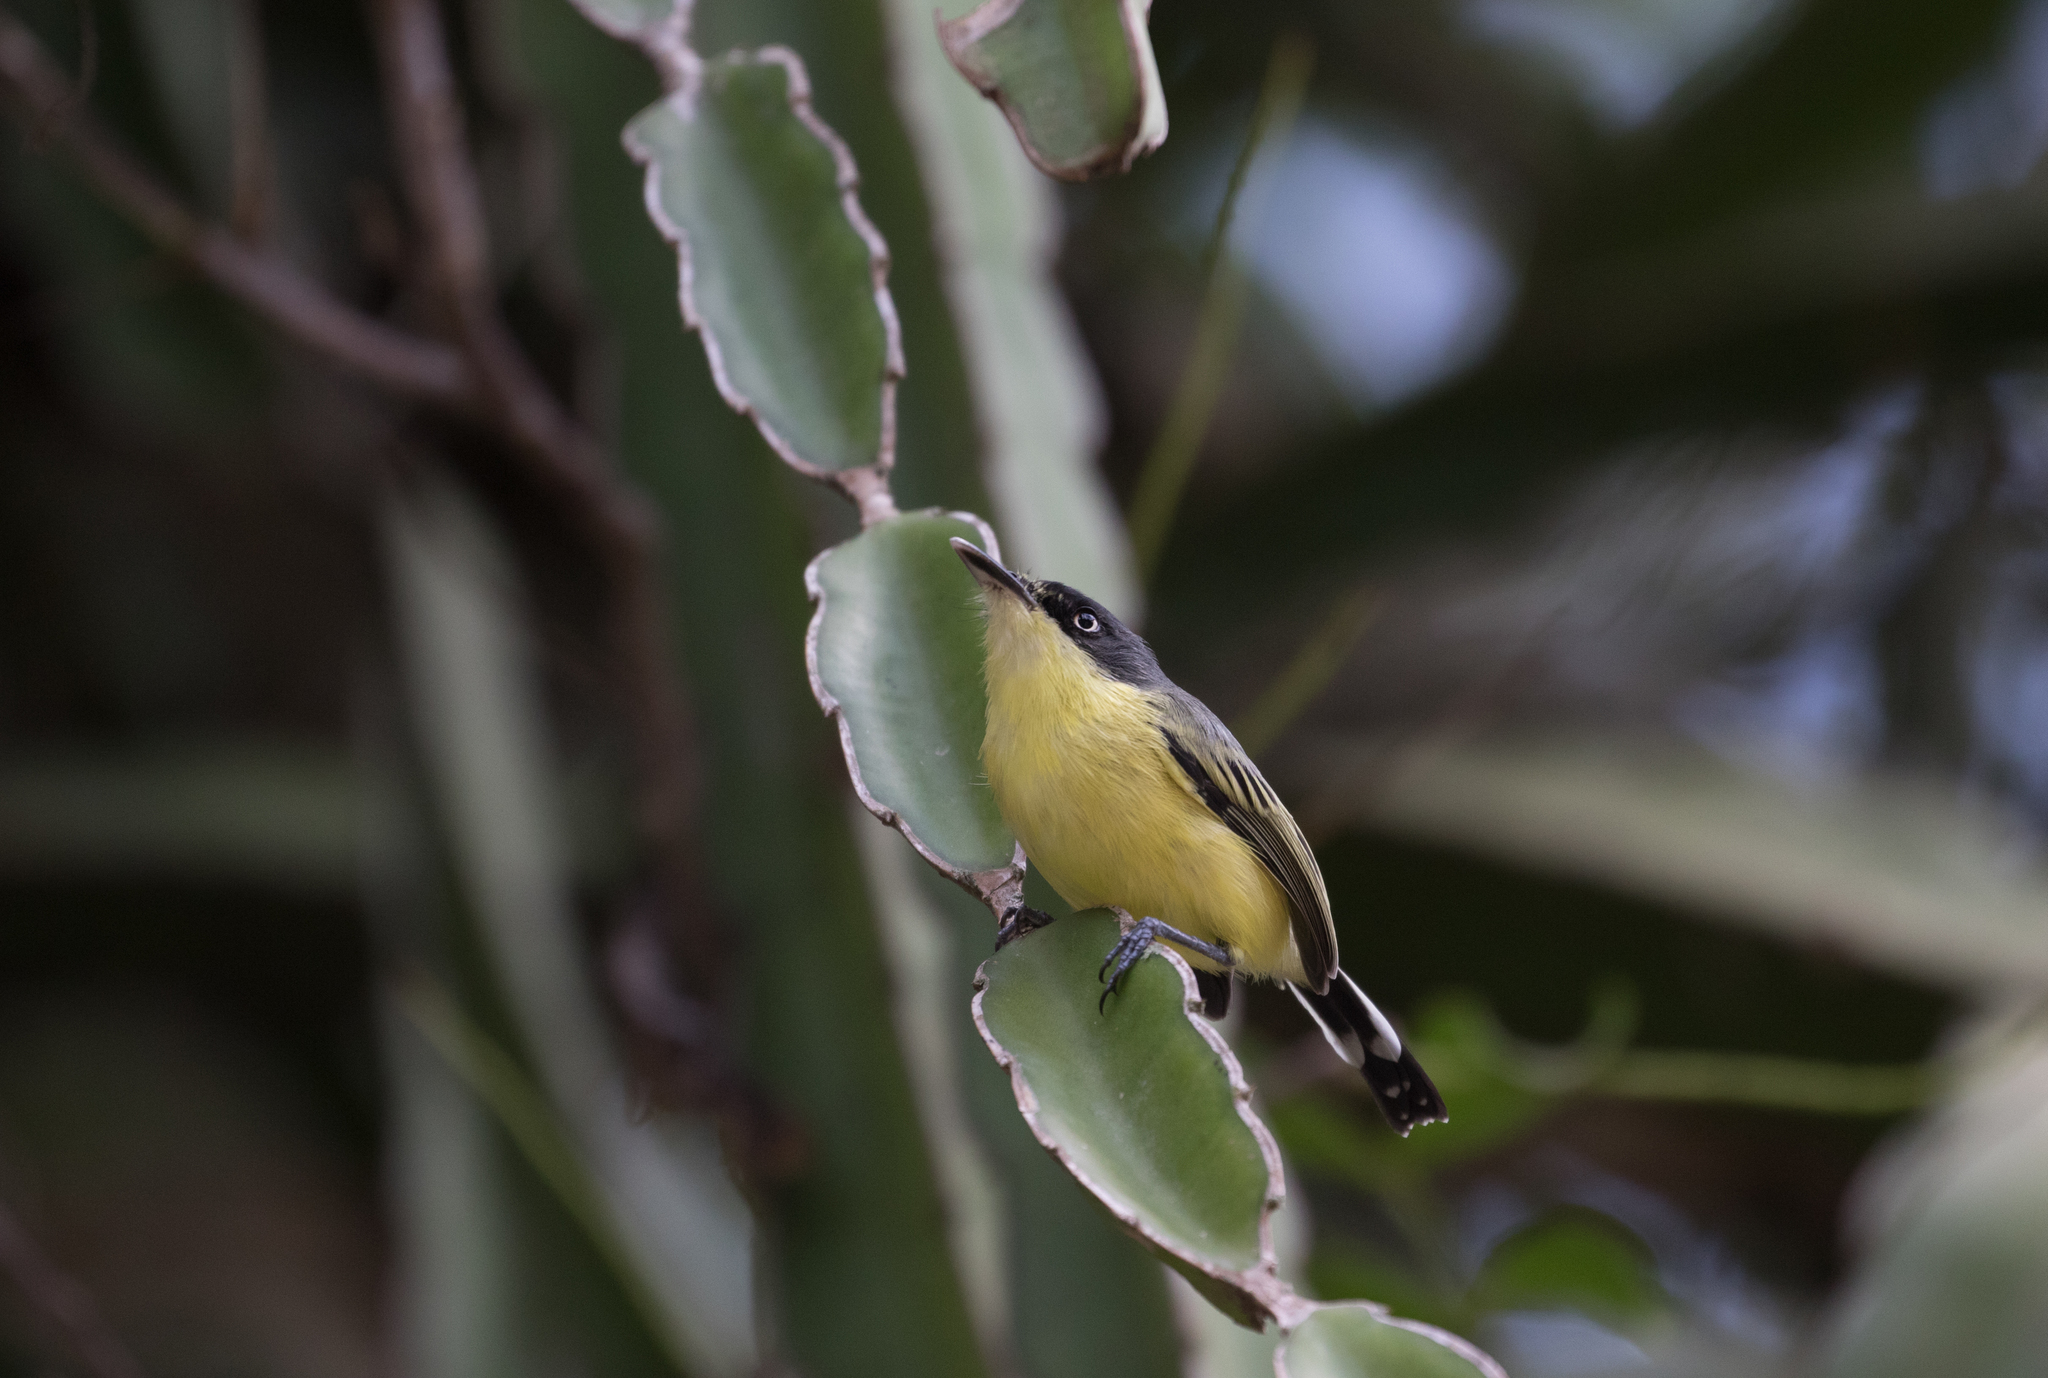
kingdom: Animalia
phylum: Chordata
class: Aves
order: Passeriformes
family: Tyrannidae
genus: Todirostrum
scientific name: Todirostrum cinereum
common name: Common tody-flycatcher
